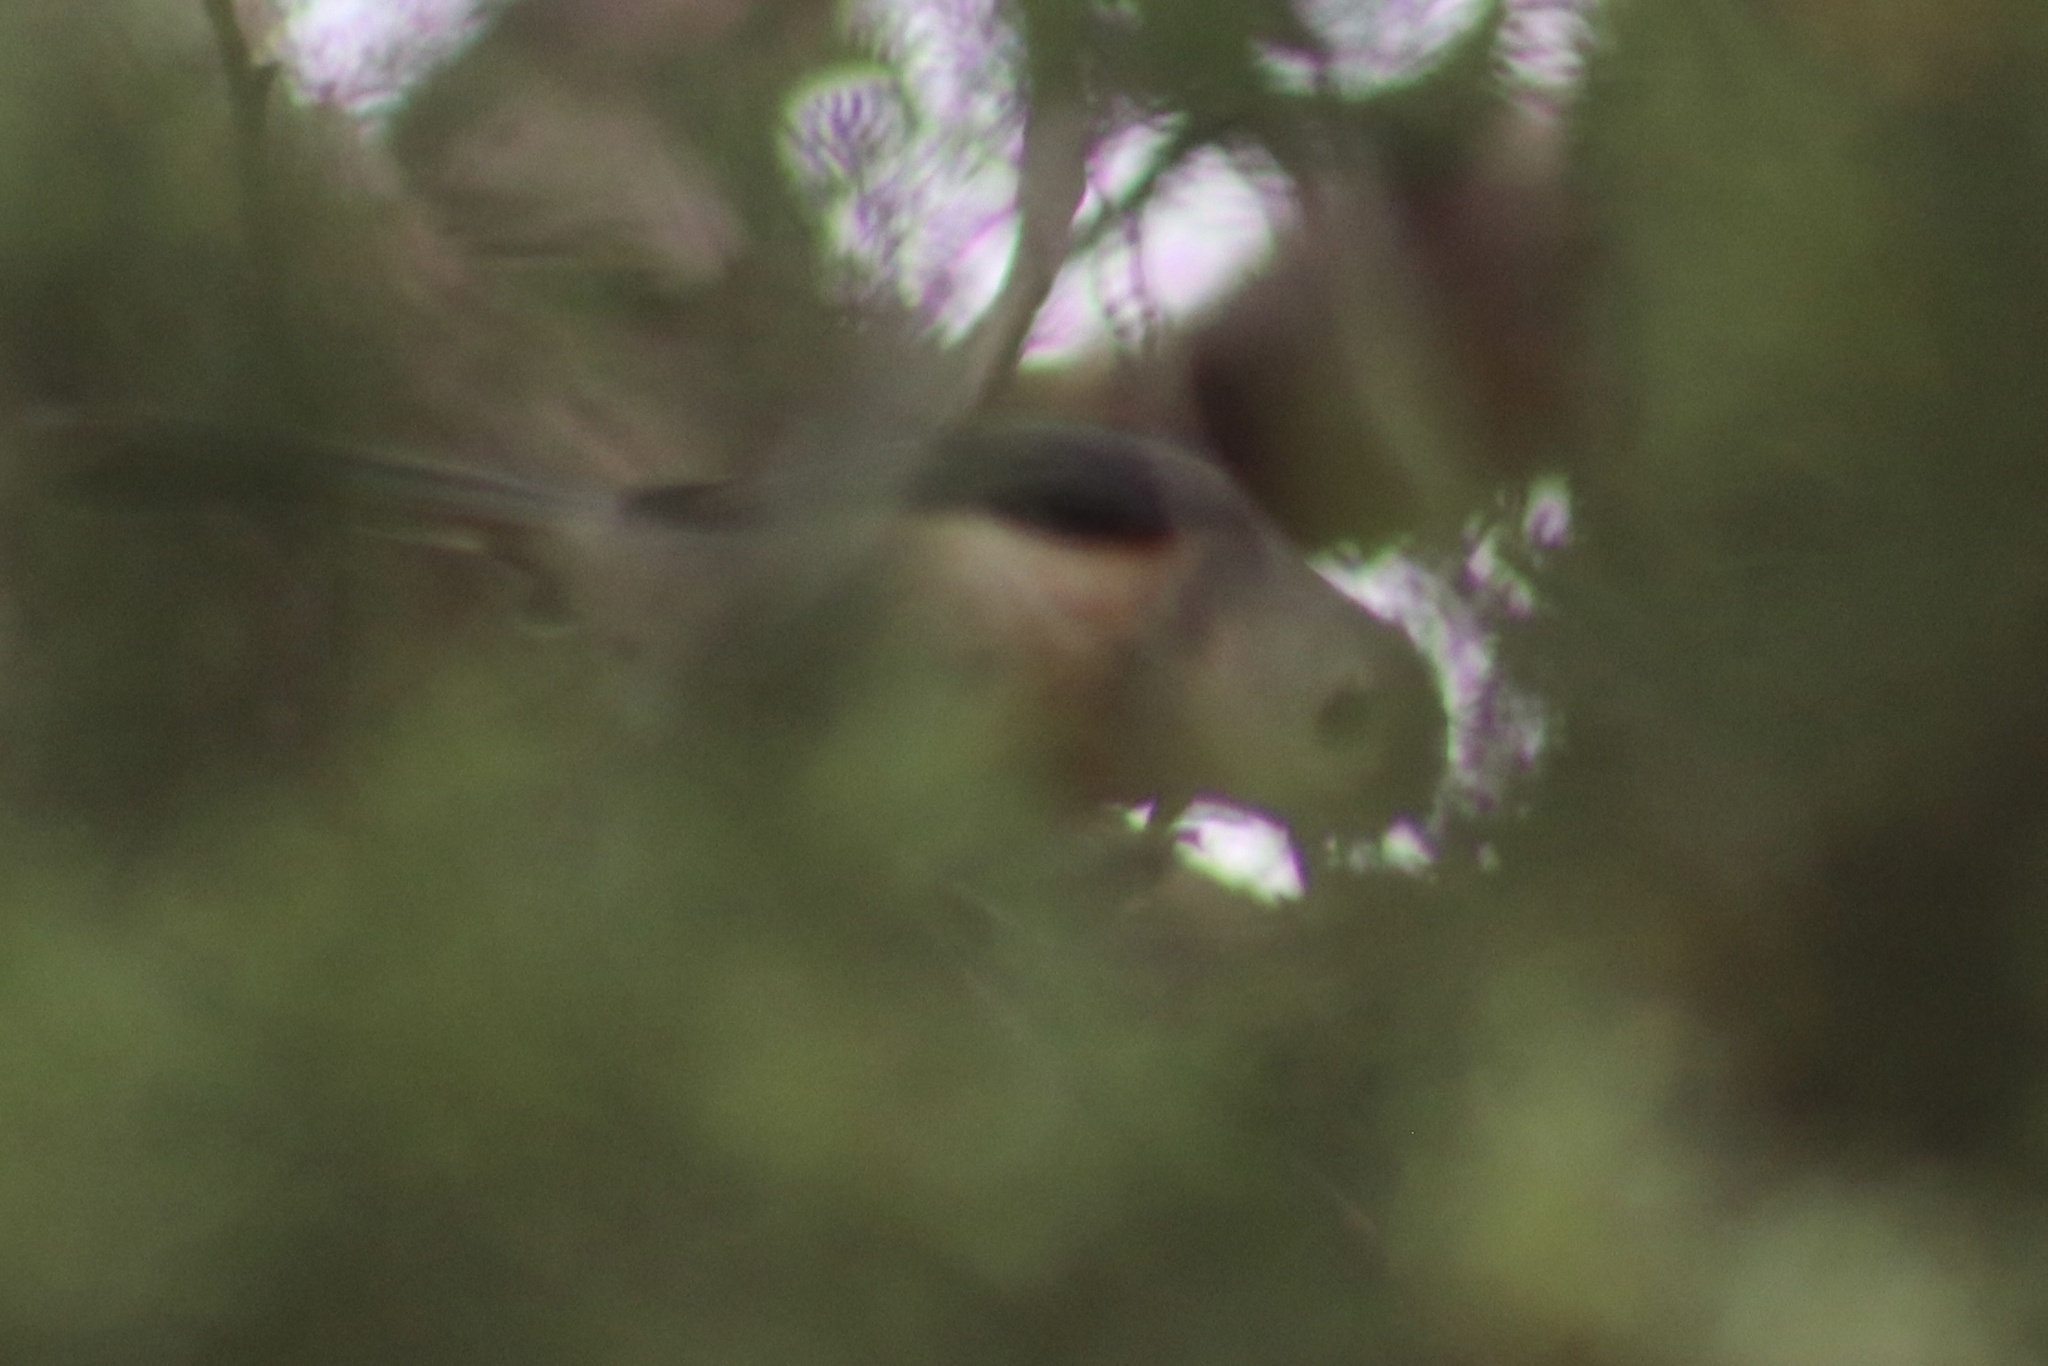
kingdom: Animalia
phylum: Chordata
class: Aves
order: Passeriformes
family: Paridae
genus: Baeolophus
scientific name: Baeolophus bicolor
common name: Tufted titmouse
